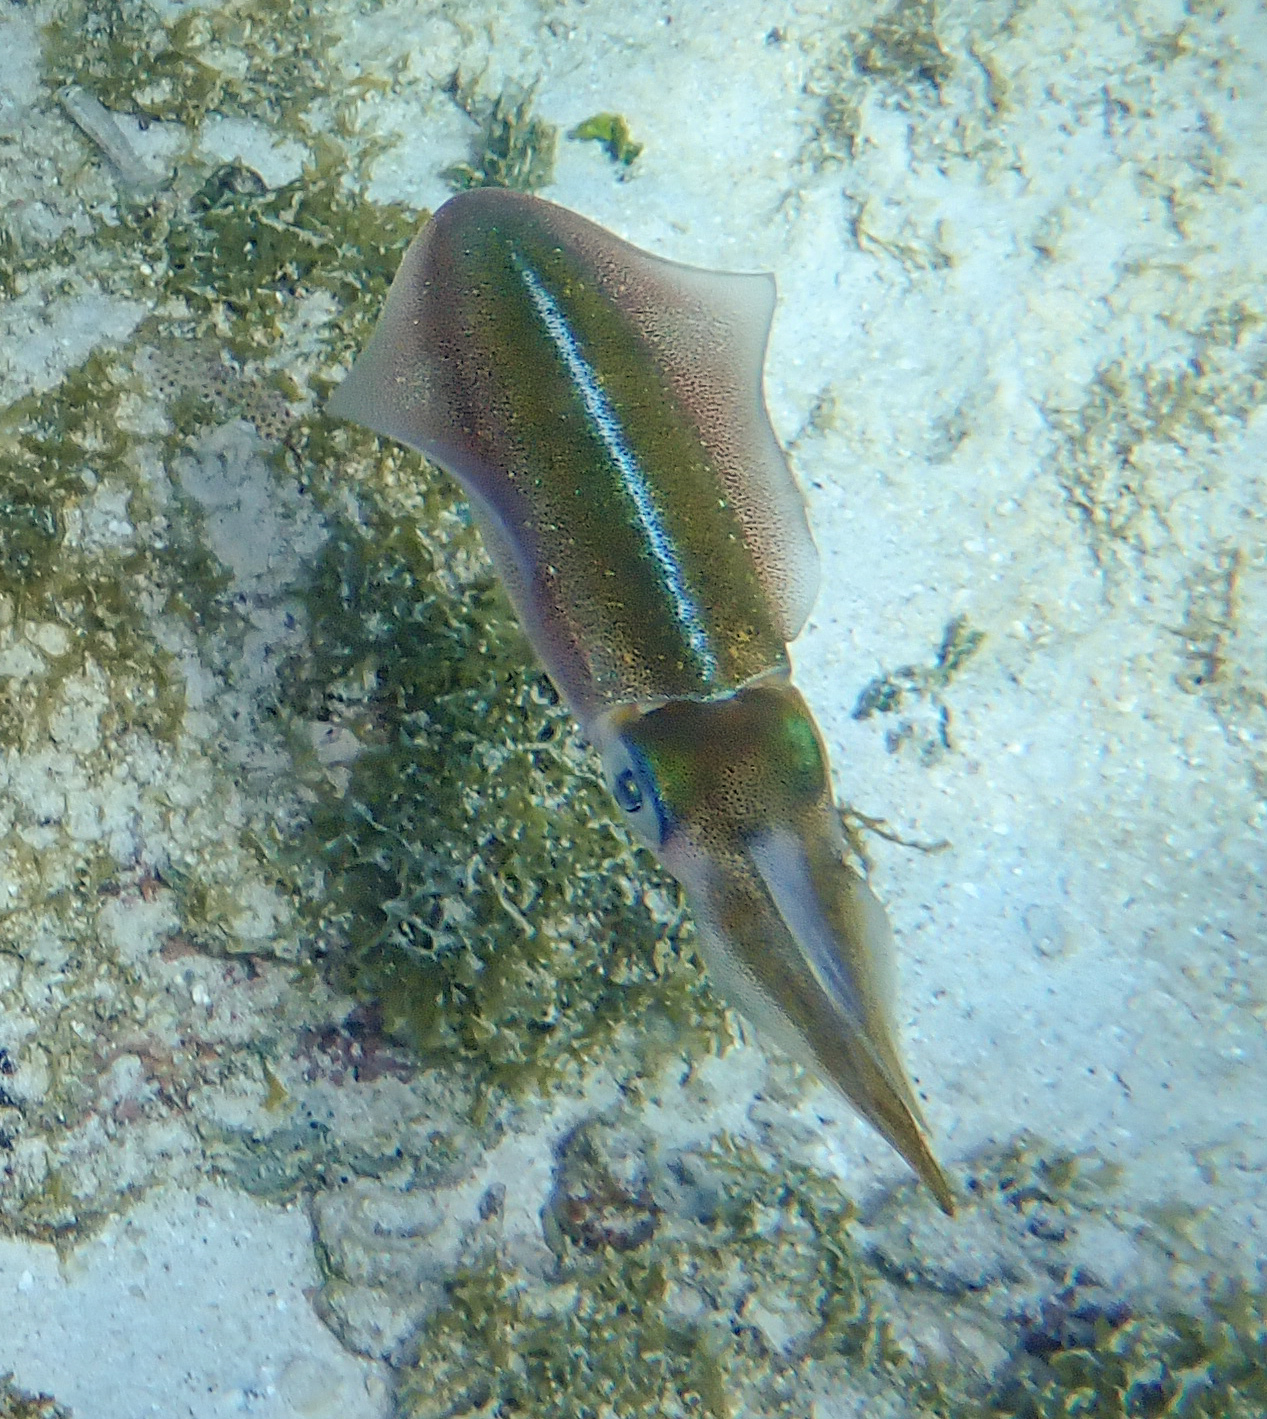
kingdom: Animalia
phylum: Mollusca
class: Cephalopoda
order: Myopsida
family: Loliginidae
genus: Sepioteuthis
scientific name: Sepioteuthis sepioidea
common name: Caribbean reef squid
